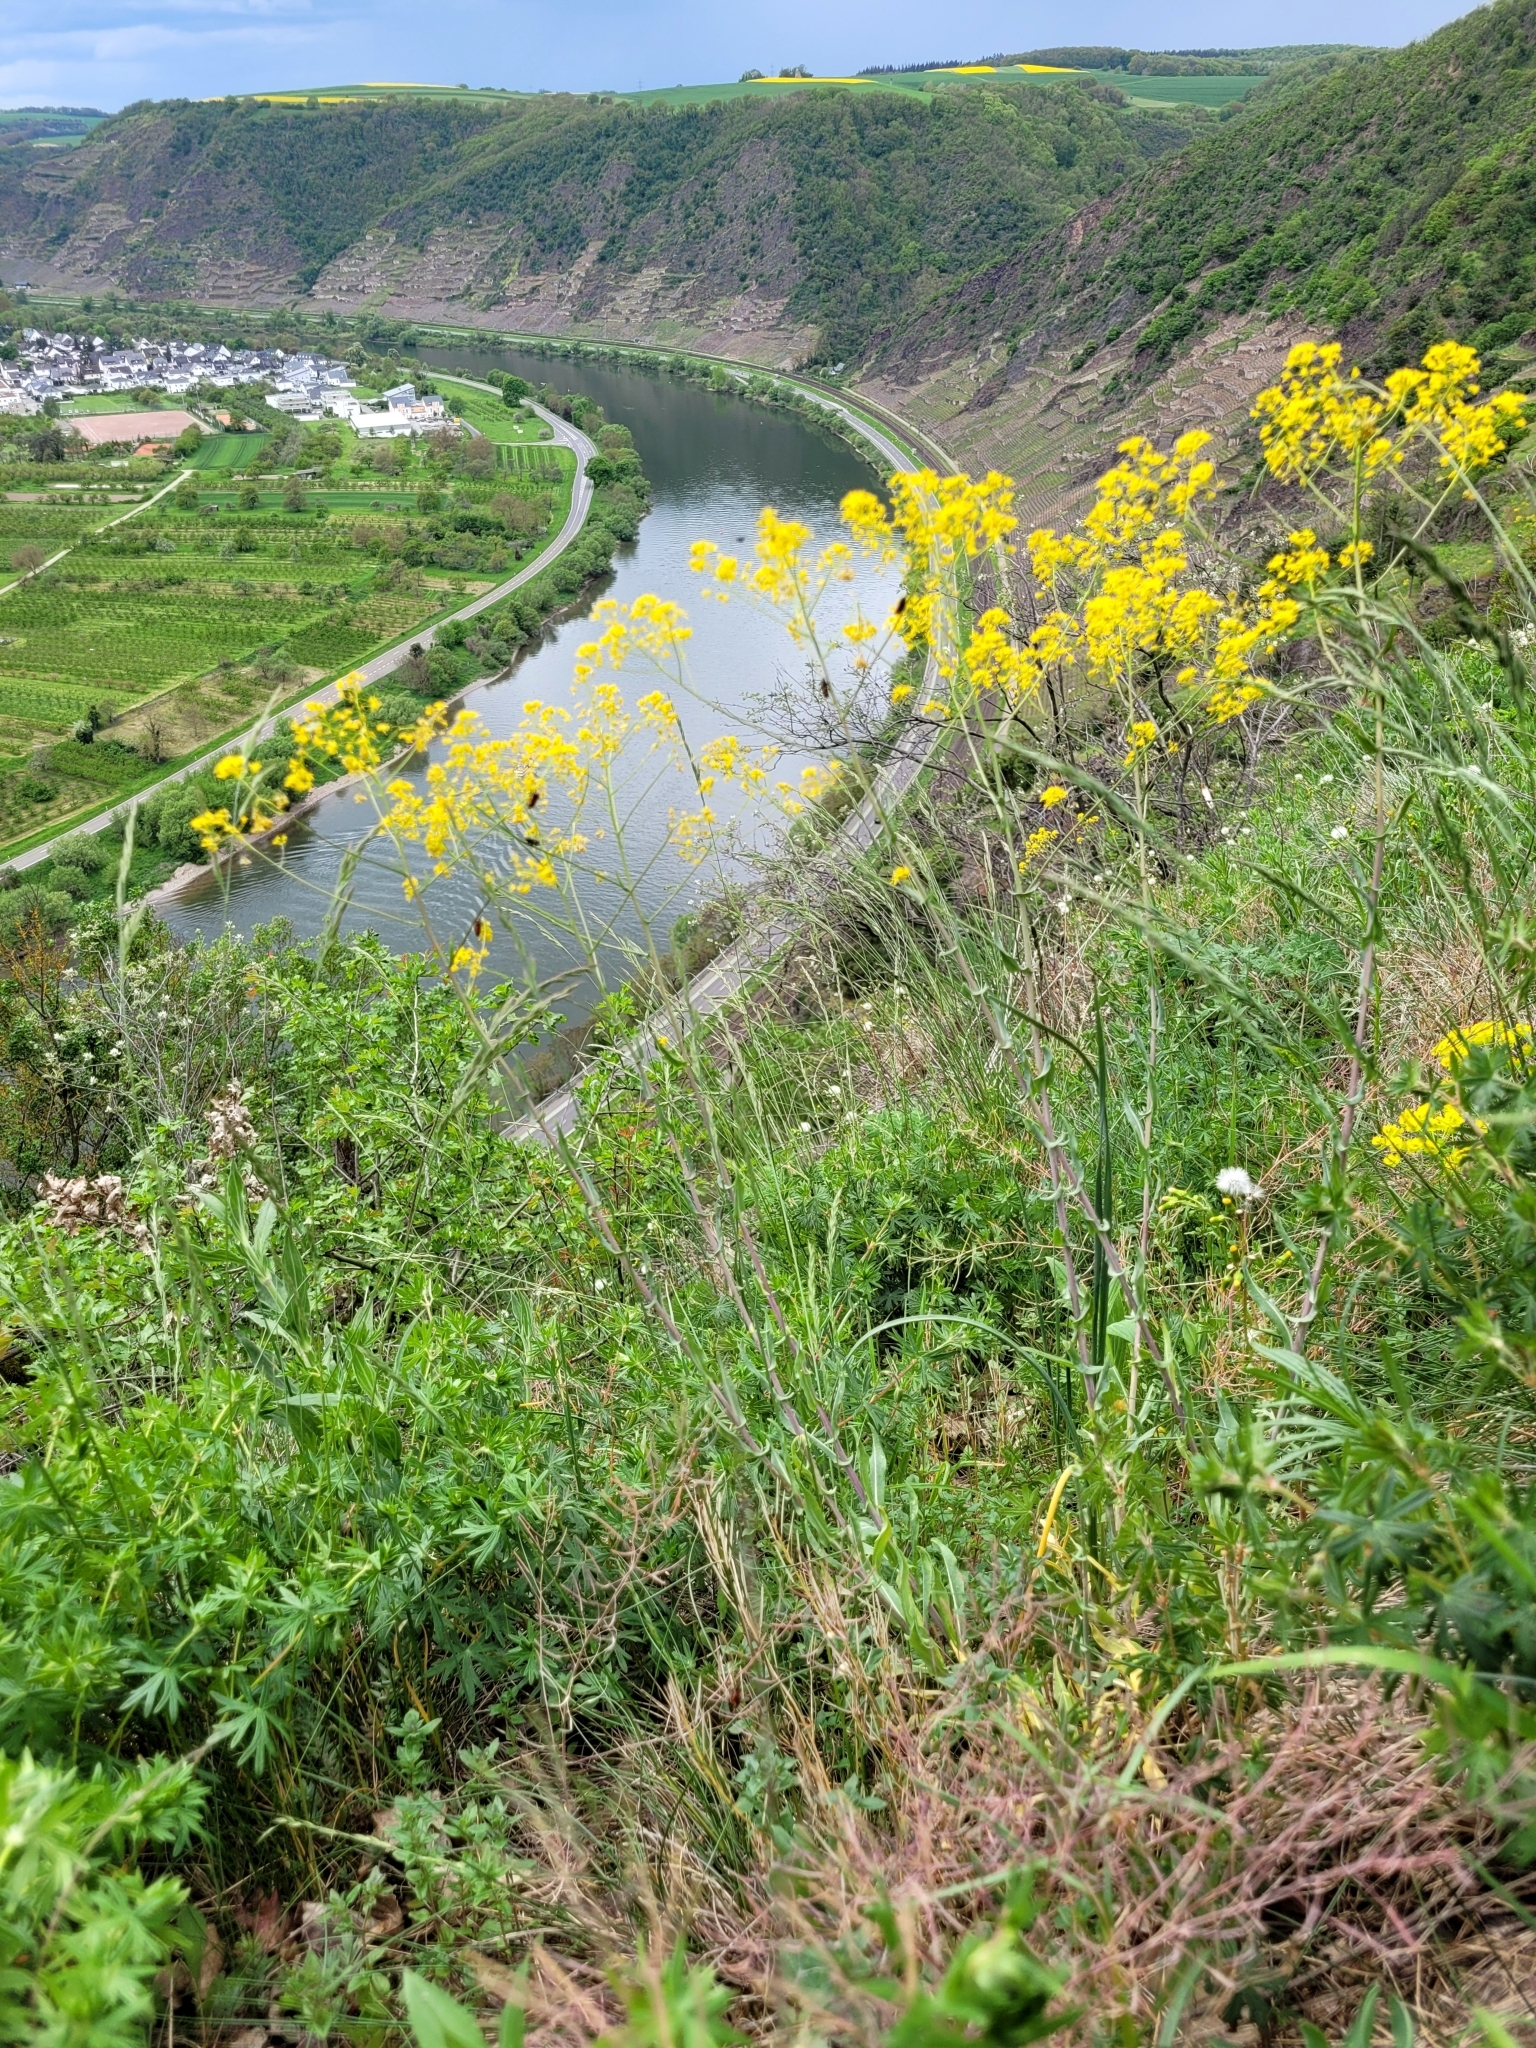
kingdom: Plantae
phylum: Tracheophyta
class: Magnoliopsida
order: Brassicales
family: Brassicaceae
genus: Isatis
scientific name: Isatis tinctoria
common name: Woad
